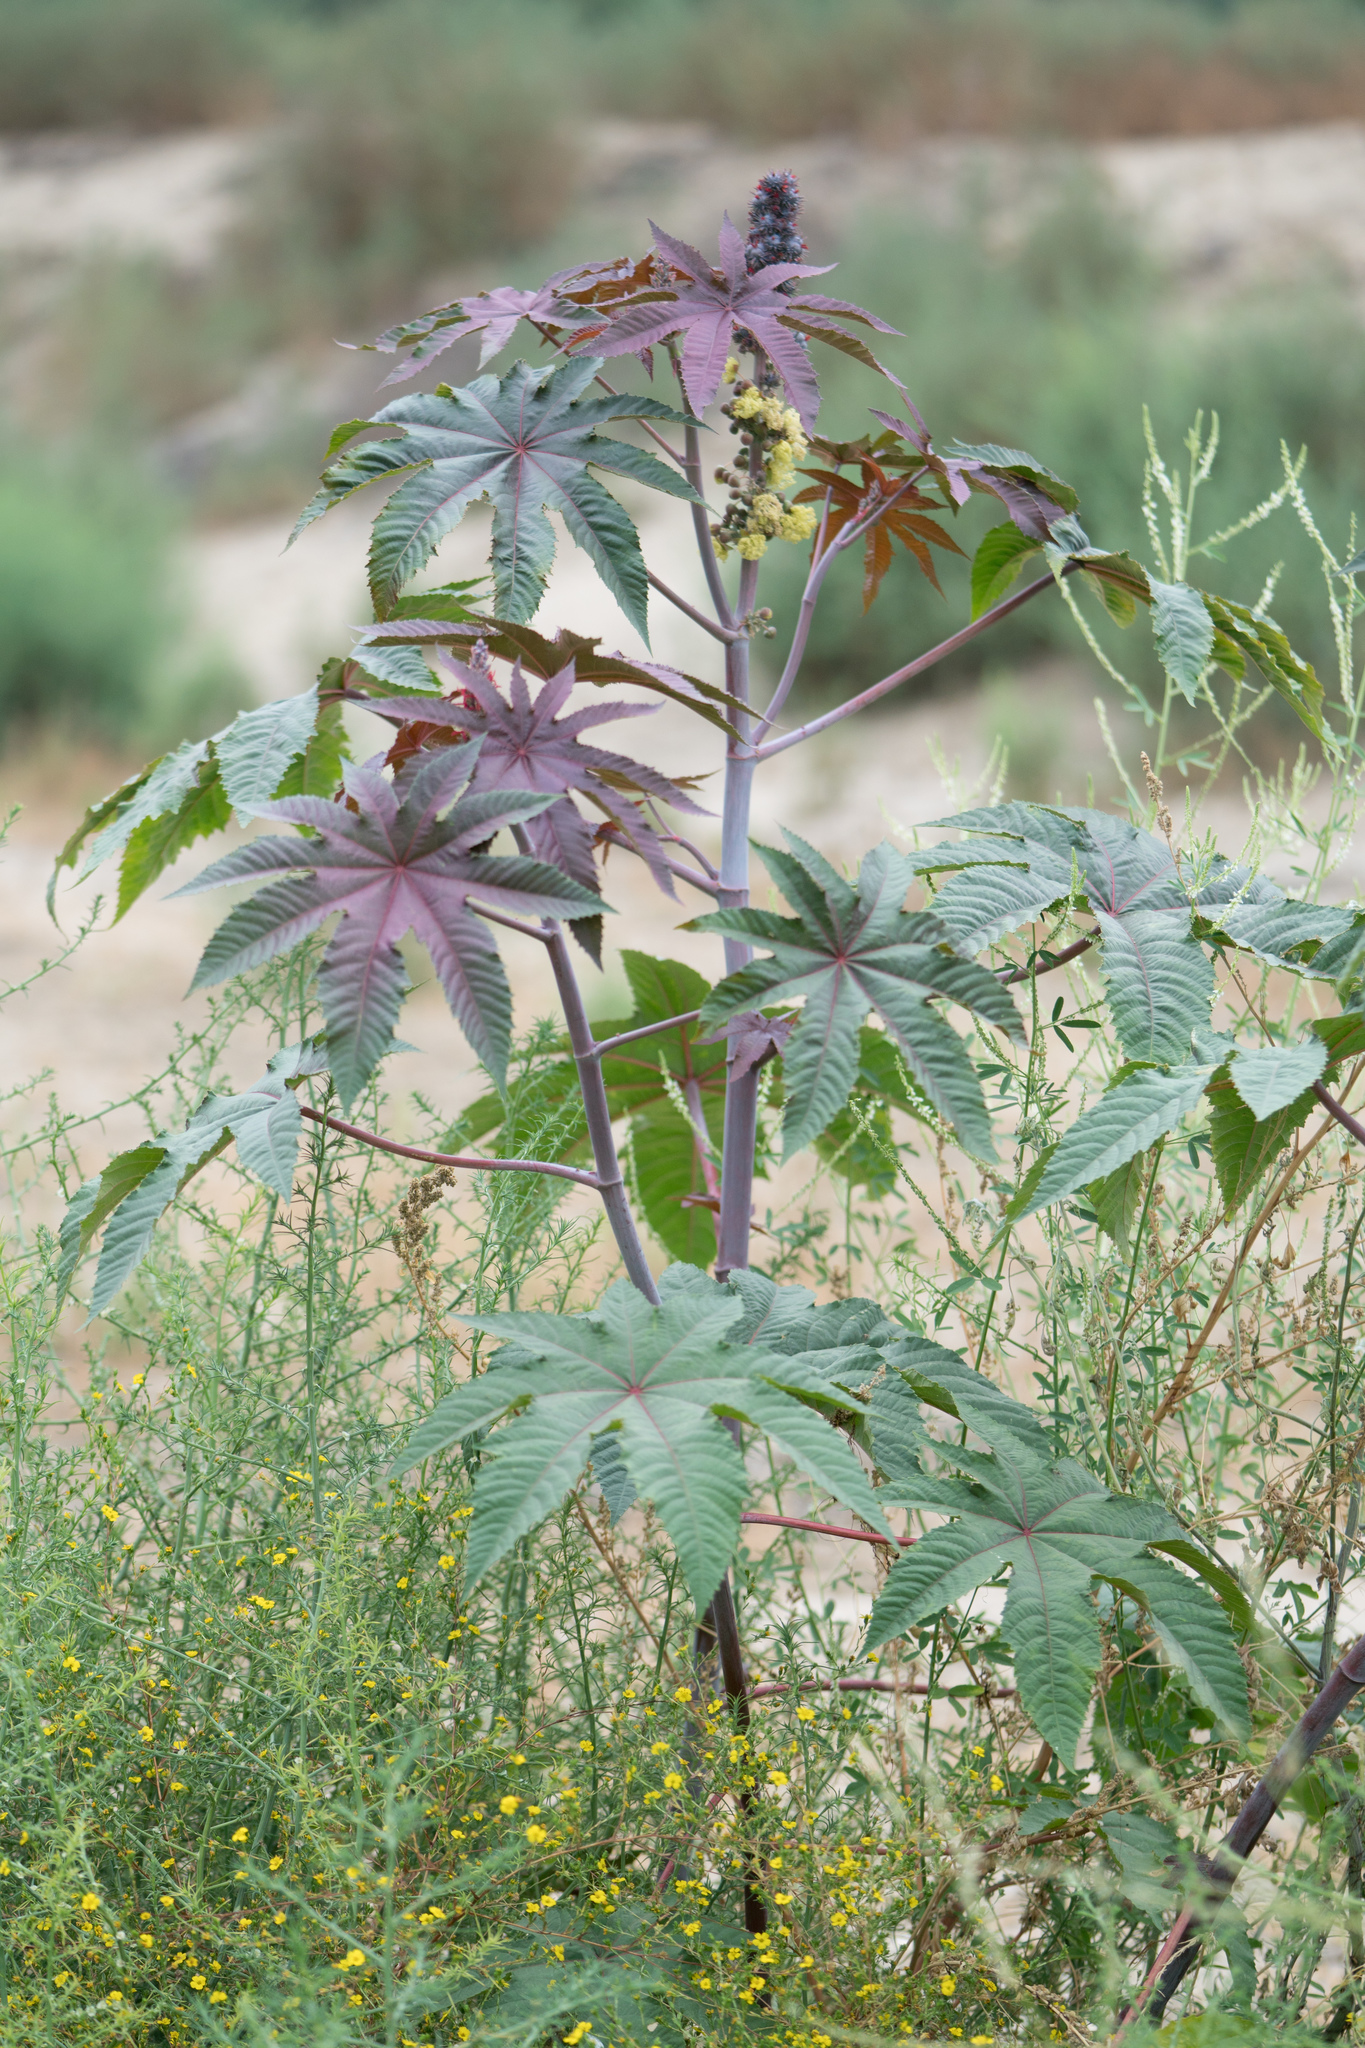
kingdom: Plantae
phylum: Tracheophyta
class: Magnoliopsida
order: Malpighiales
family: Euphorbiaceae
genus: Ricinus
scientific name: Ricinus communis
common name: Castor-oil-plant
